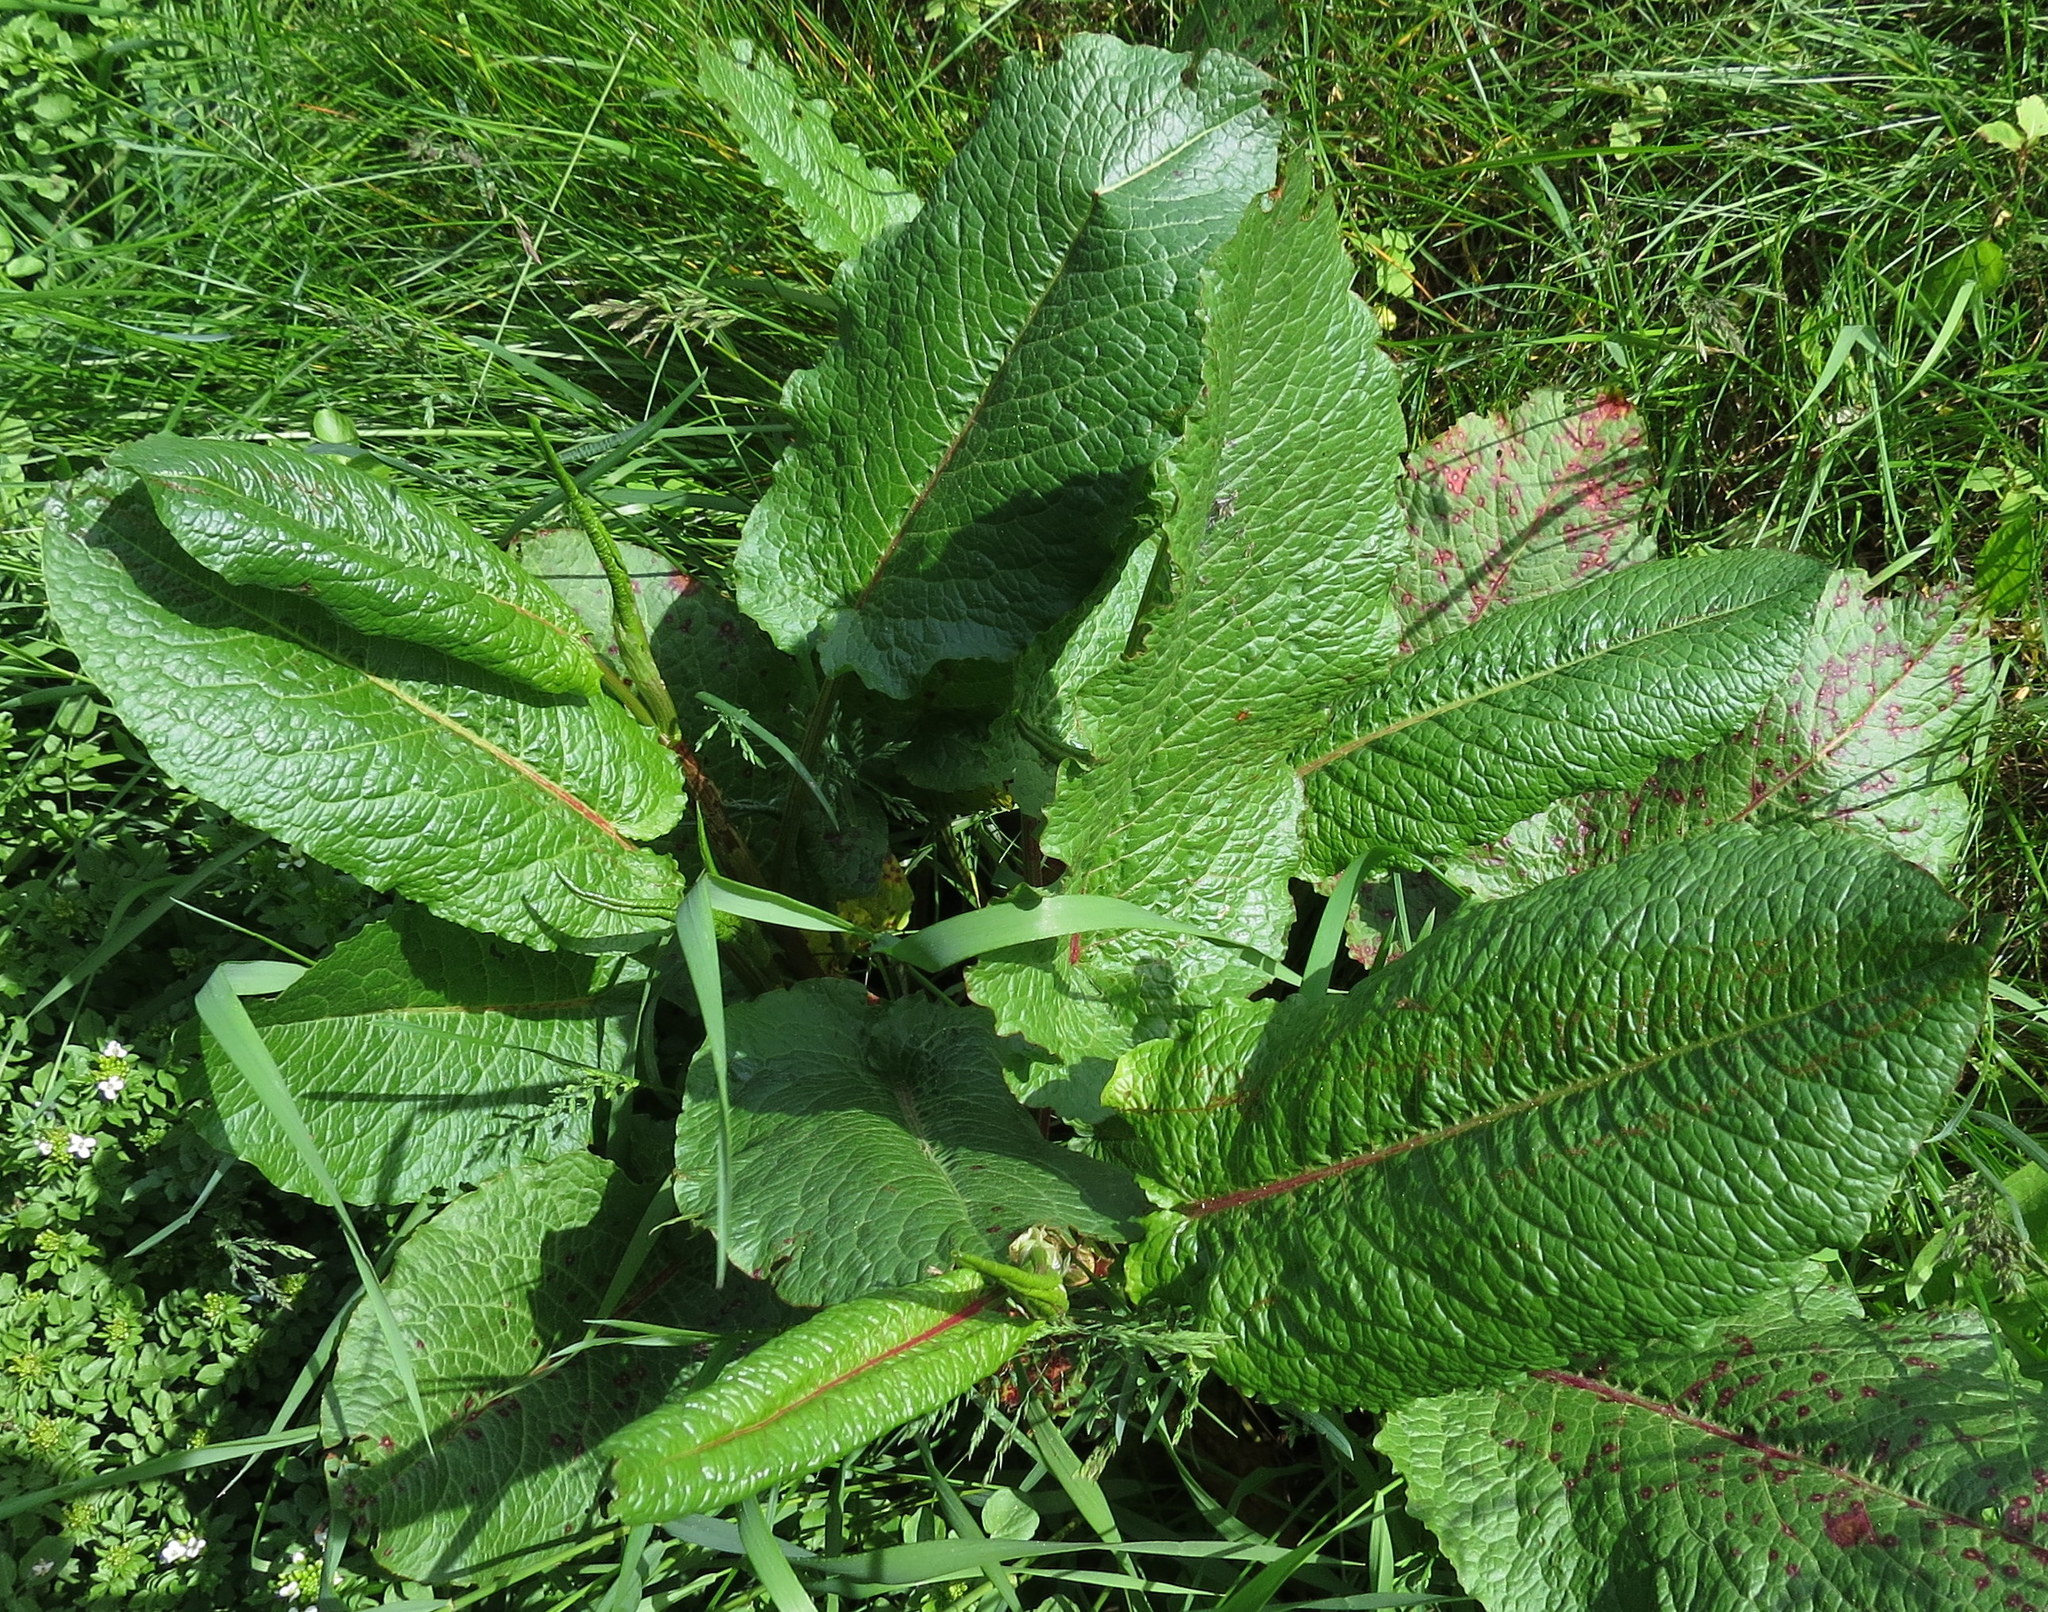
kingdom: Plantae
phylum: Tracheophyta
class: Magnoliopsida
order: Caryophyllales
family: Polygonaceae
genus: Rumex
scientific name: Rumex obtusifolius
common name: Bitter dock
